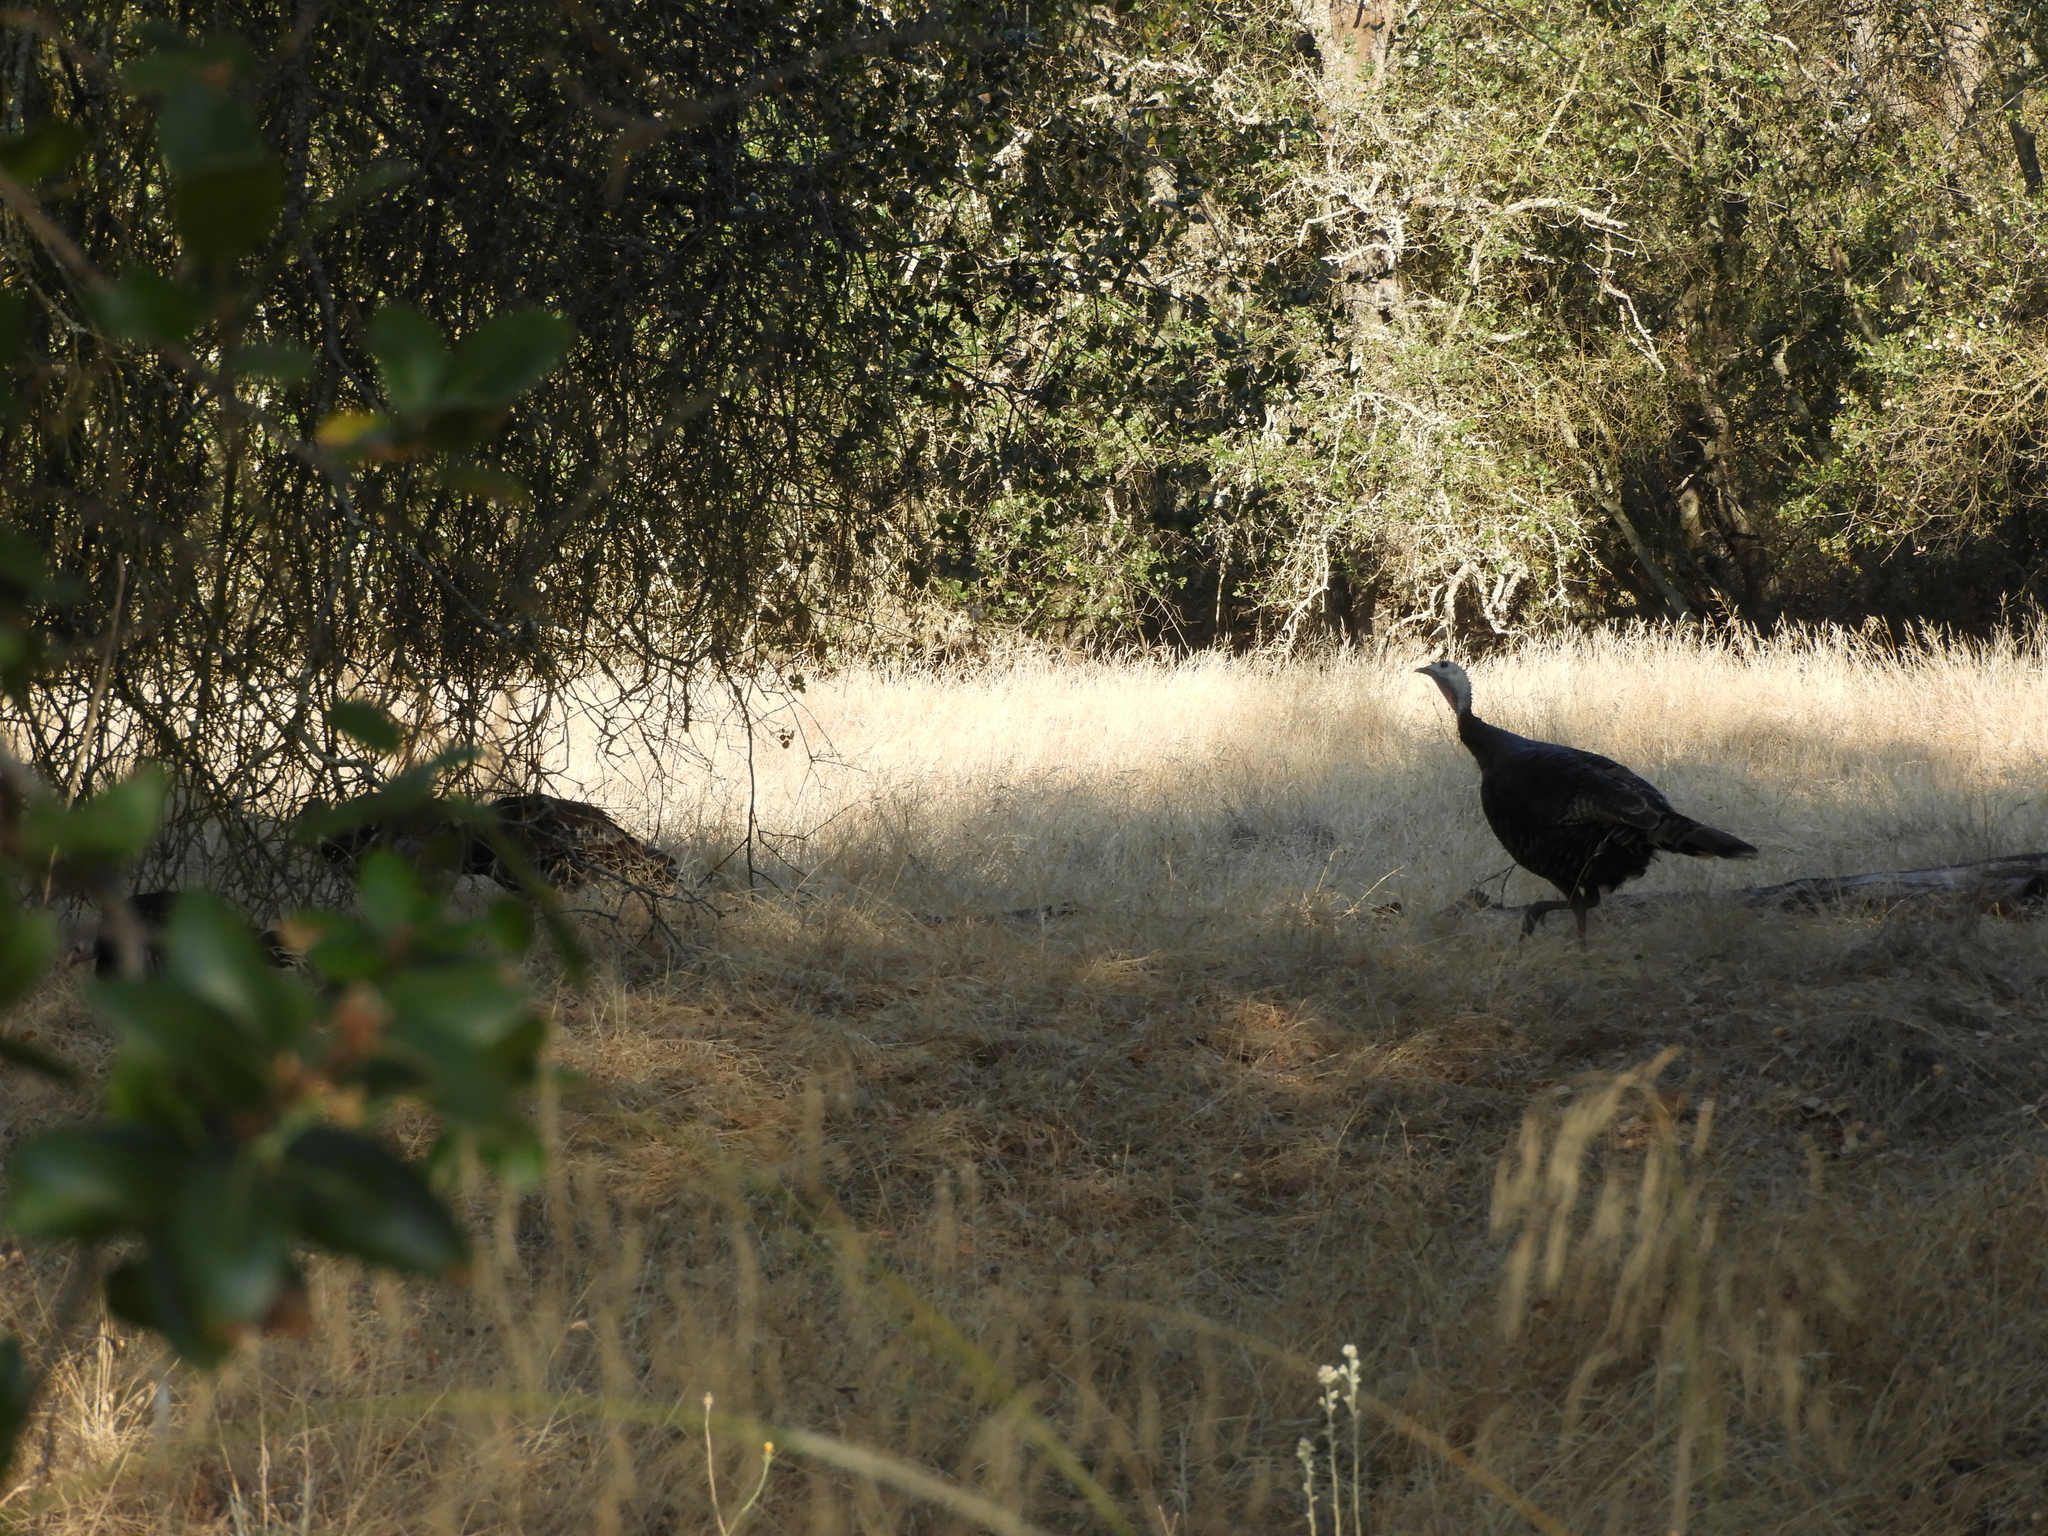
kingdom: Animalia
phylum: Chordata
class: Aves
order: Galliformes
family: Phasianidae
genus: Meleagris
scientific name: Meleagris gallopavo
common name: Wild turkey
